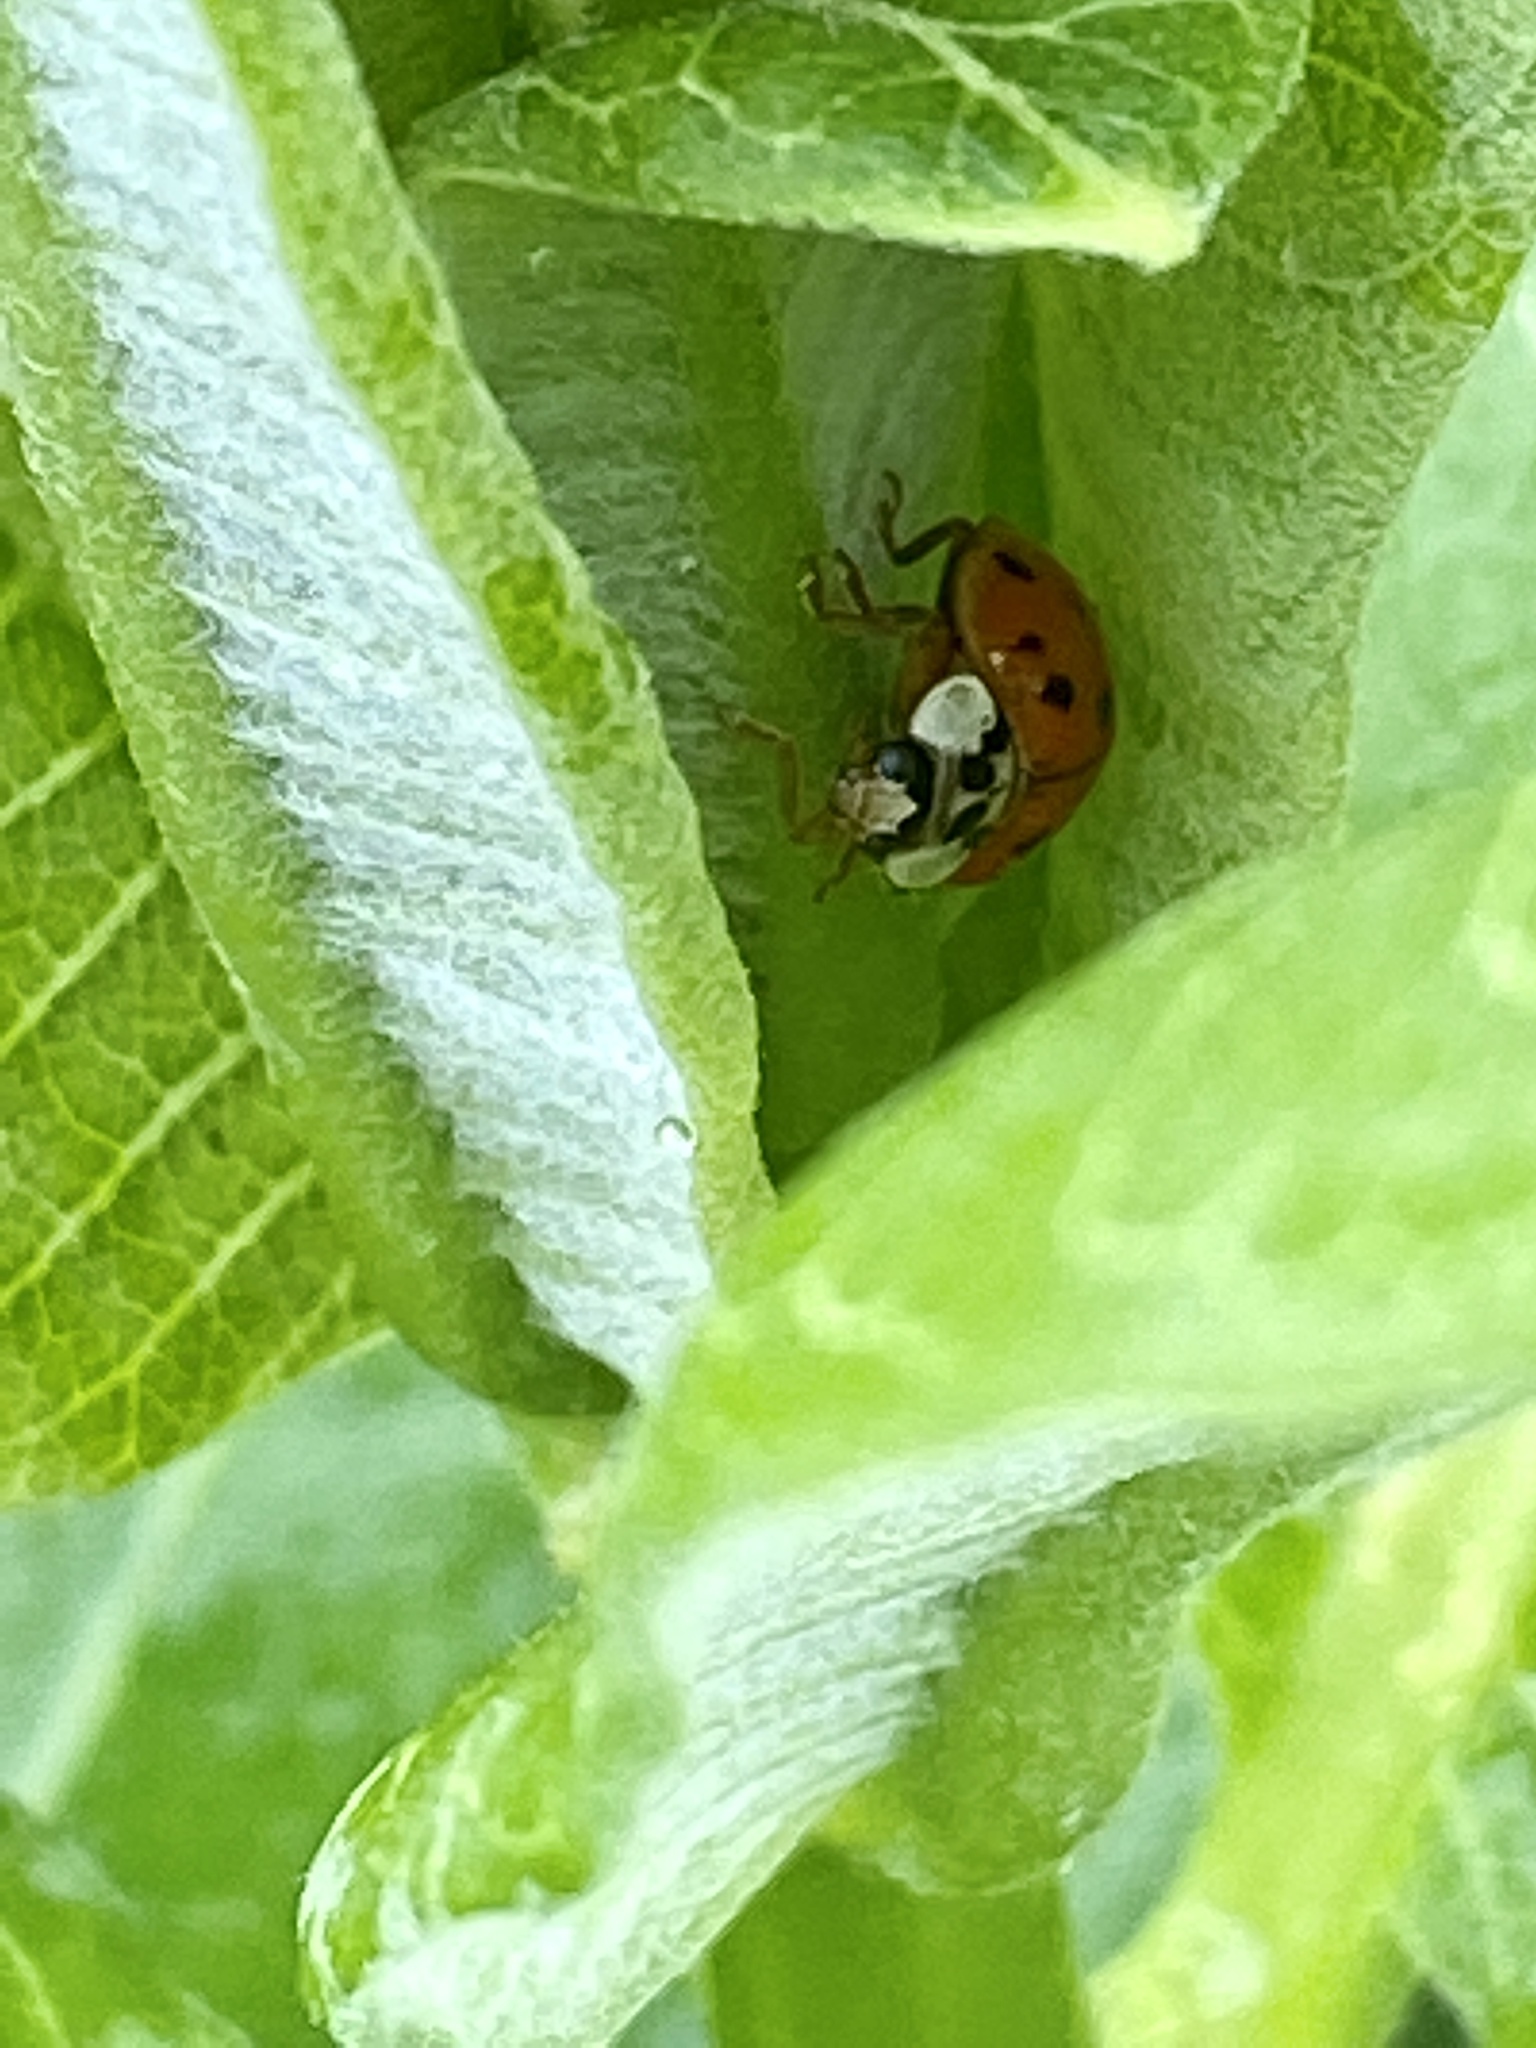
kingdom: Animalia
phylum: Arthropoda
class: Insecta
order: Coleoptera
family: Coccinellidae
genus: Harmonia
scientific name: Harmonia axyridis
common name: Harlequin ladybird
